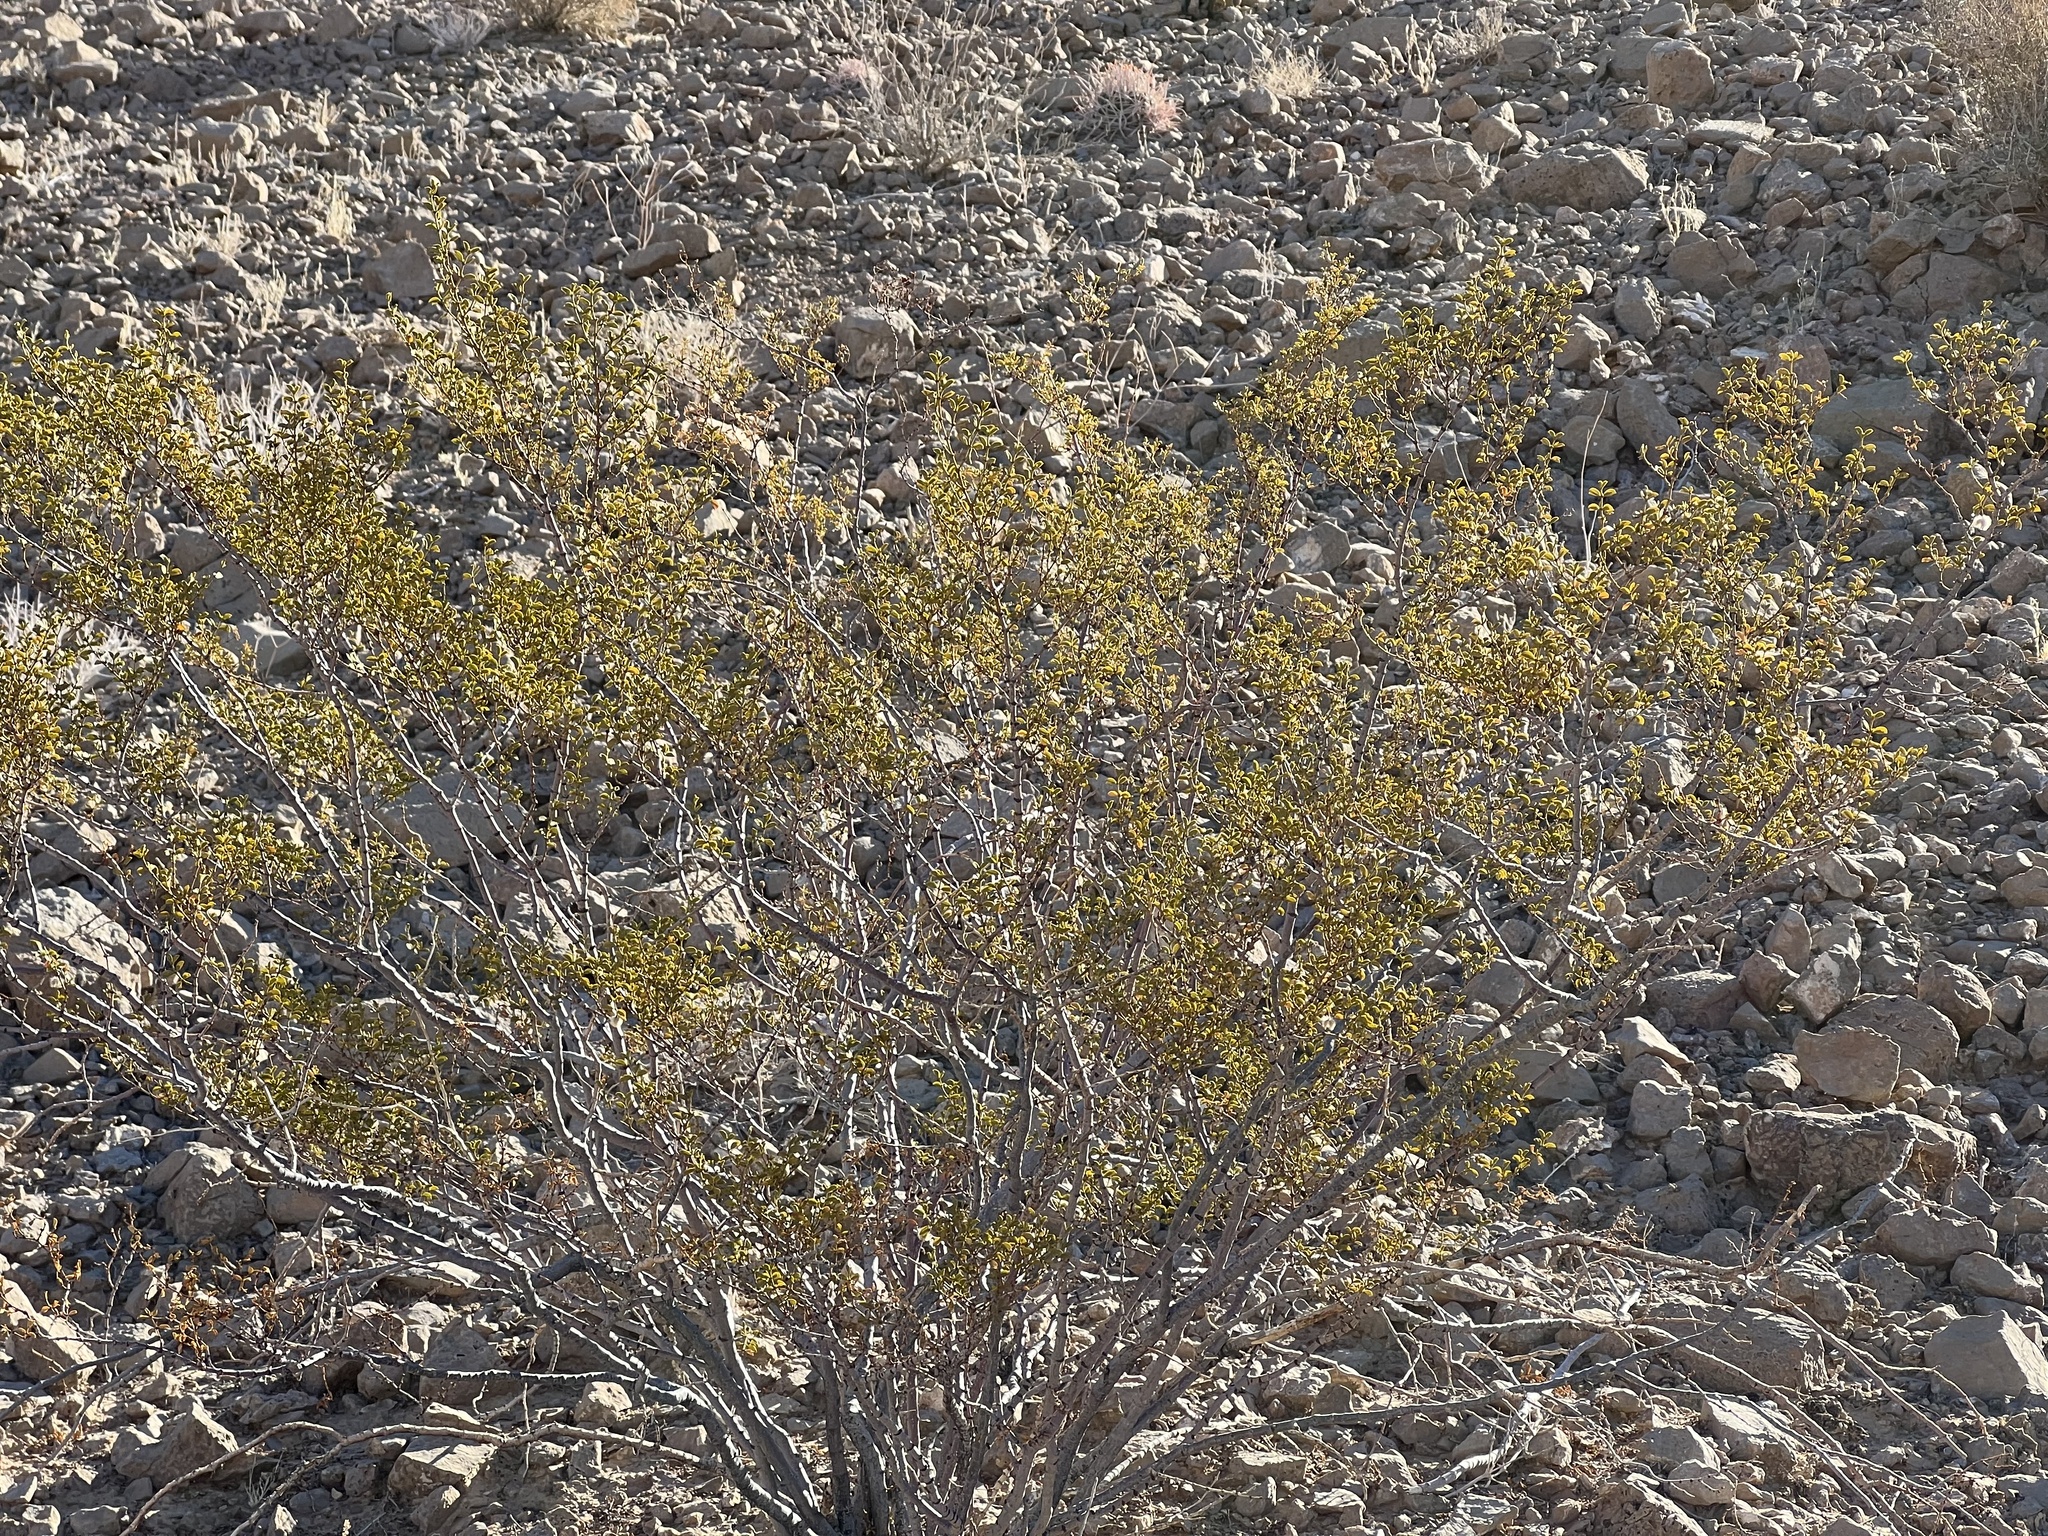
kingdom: Plantae
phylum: Tracheophyta
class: Magnoliopsida
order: Zygophyllales
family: Zygophyllaceae
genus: Larrea
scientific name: Larrea tridentata
